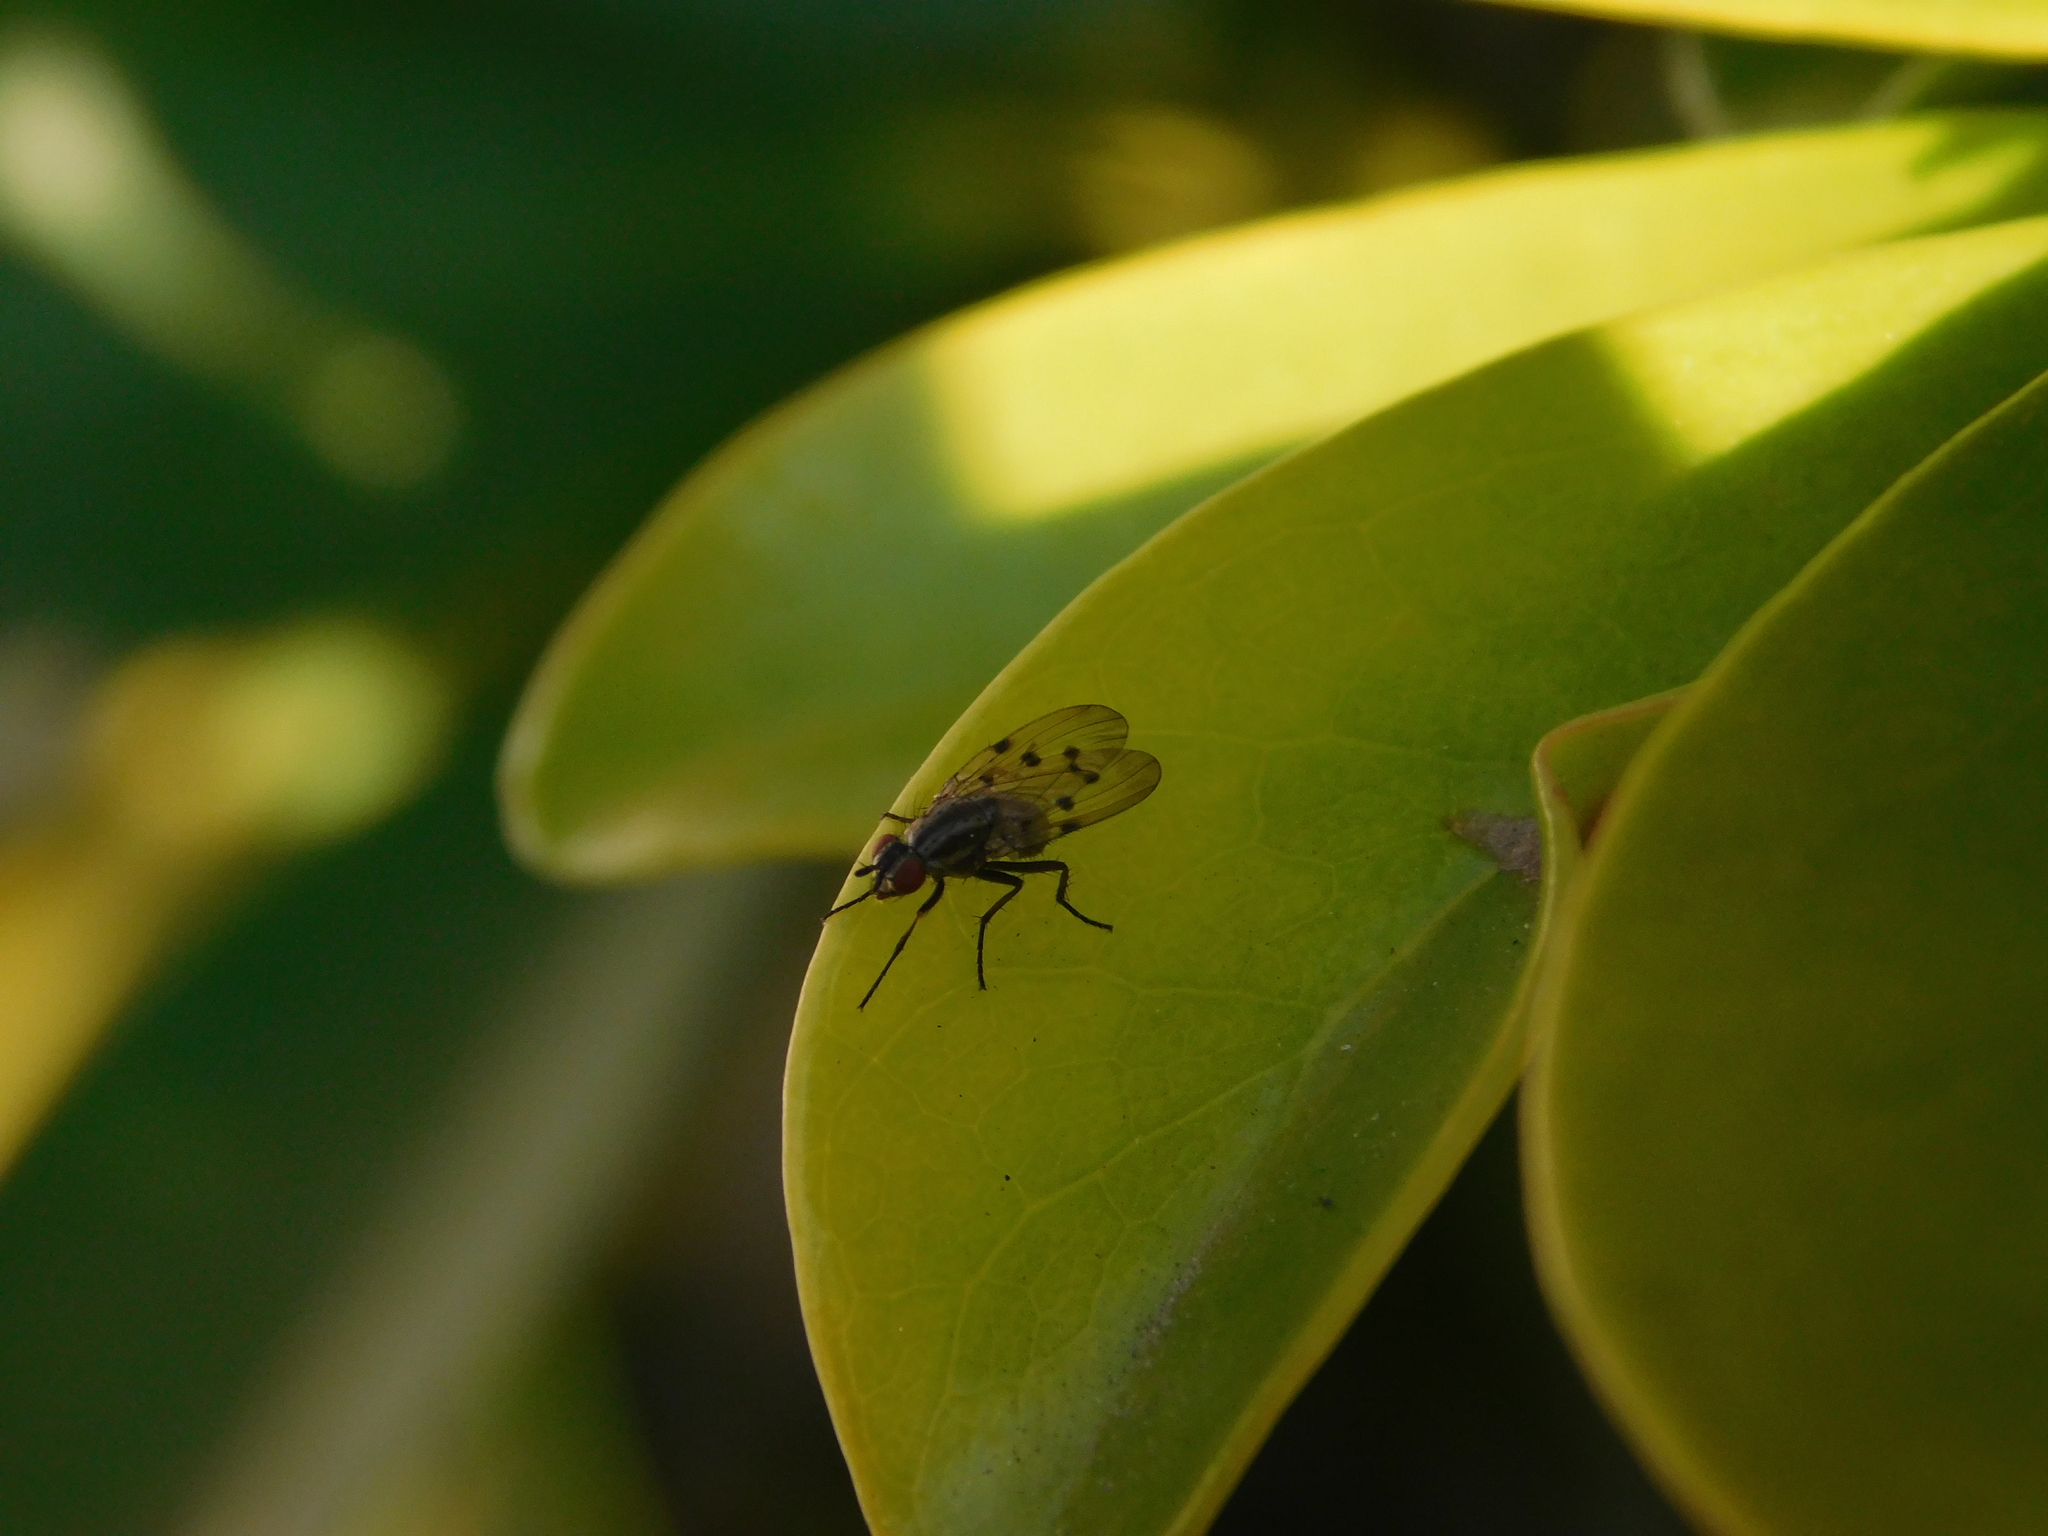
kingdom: Animalia
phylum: Arthropoda
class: Insecta
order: Diptera
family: Anthomyiidae
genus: Anthomyia
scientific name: Anthomyia punctipennis
